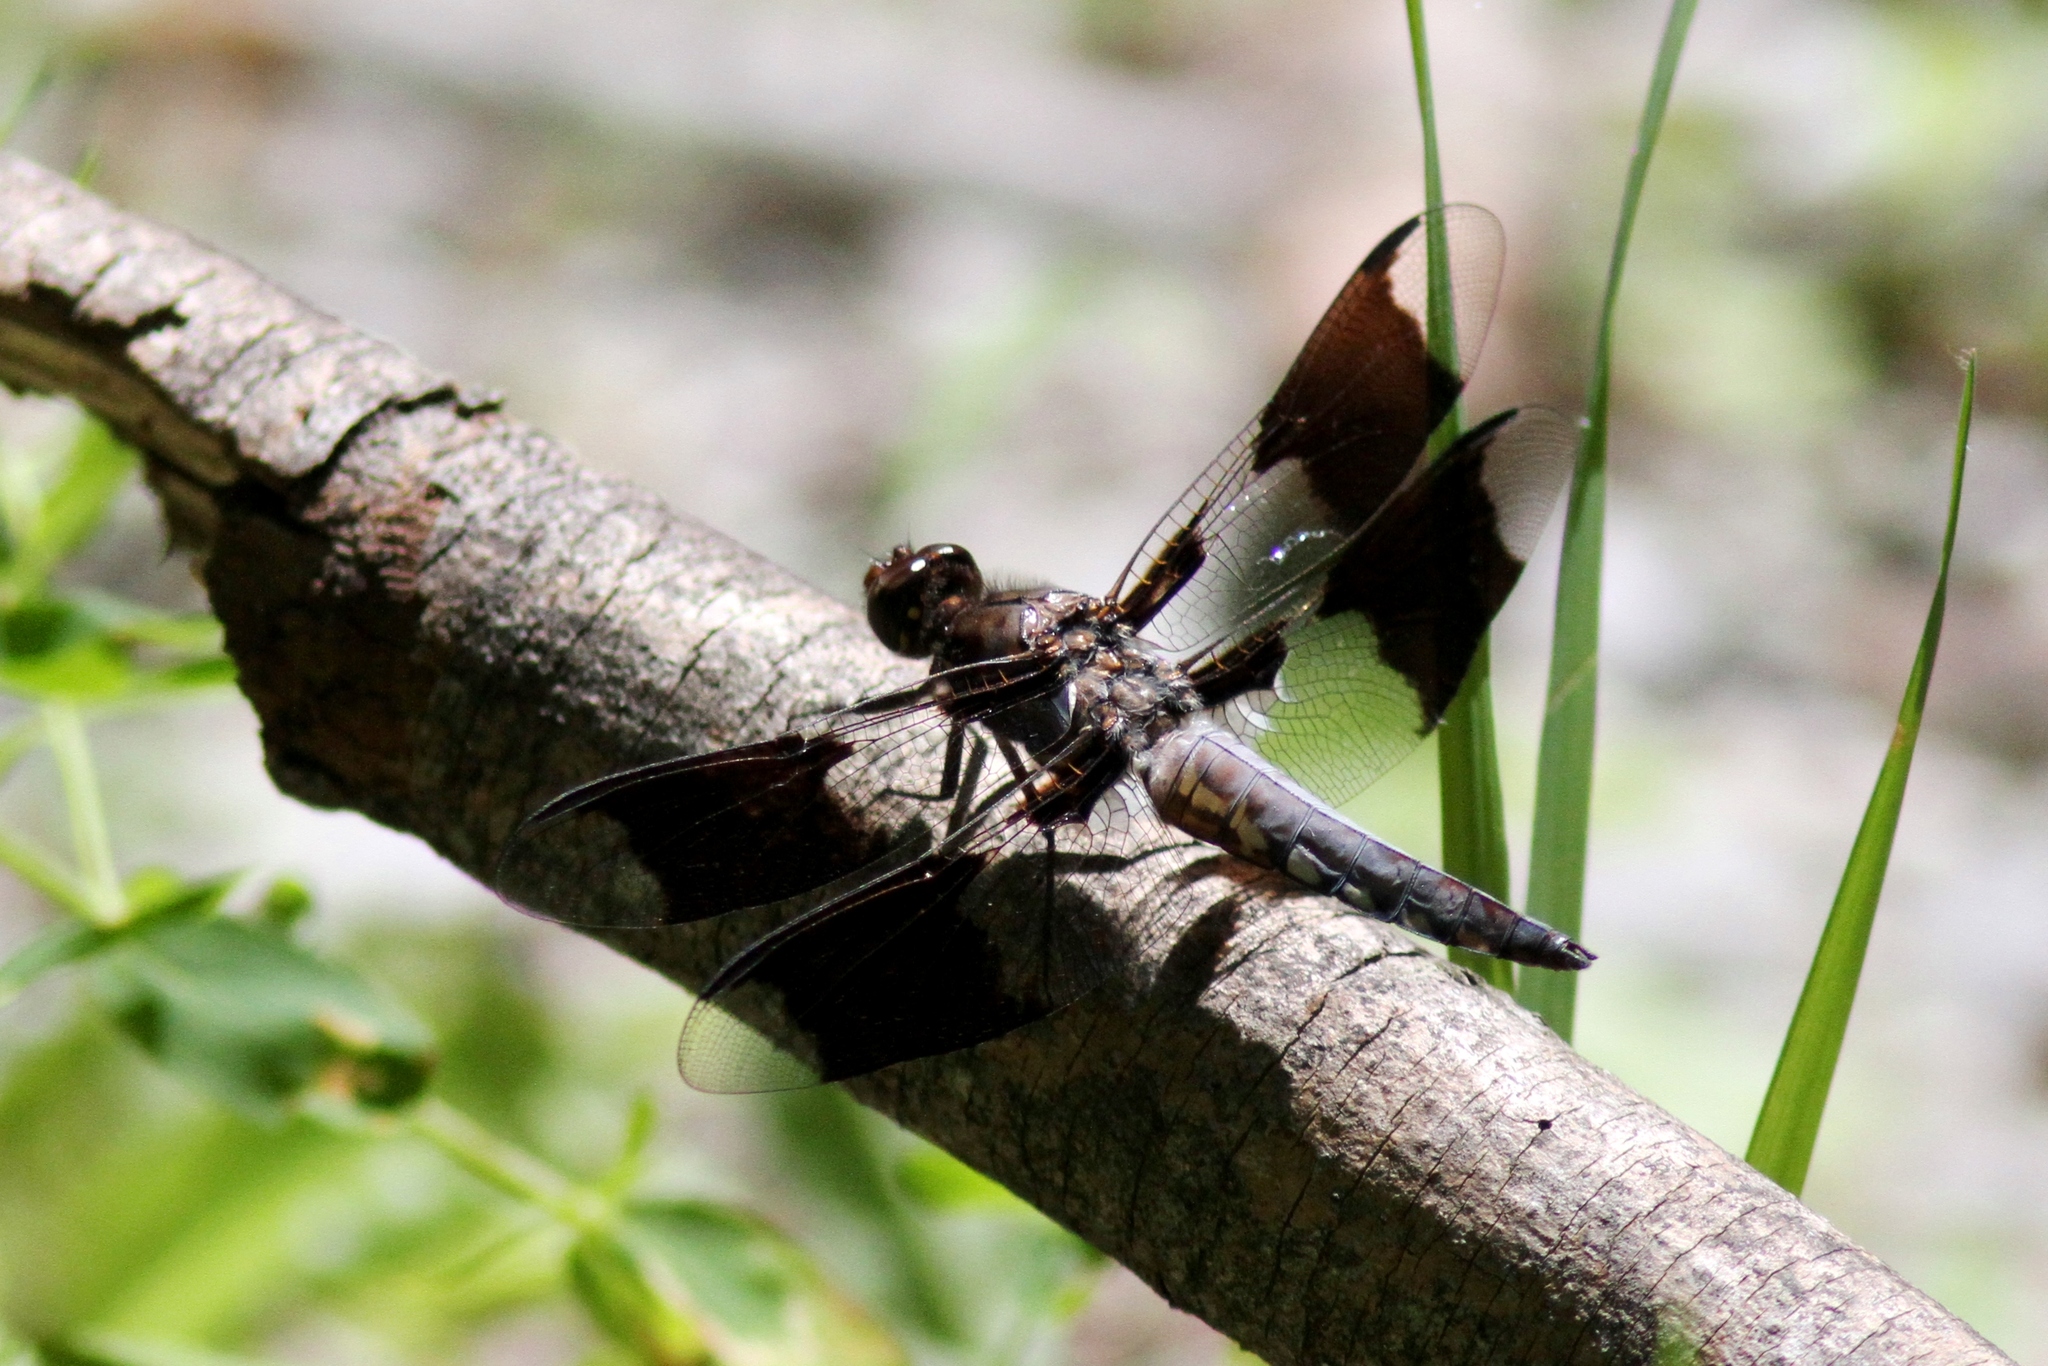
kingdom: Animalia
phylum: Arthropoda
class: Insecta
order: Odonata
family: Libellulidae
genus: Plathemis
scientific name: Plathemis lydia
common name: Common whitetail
